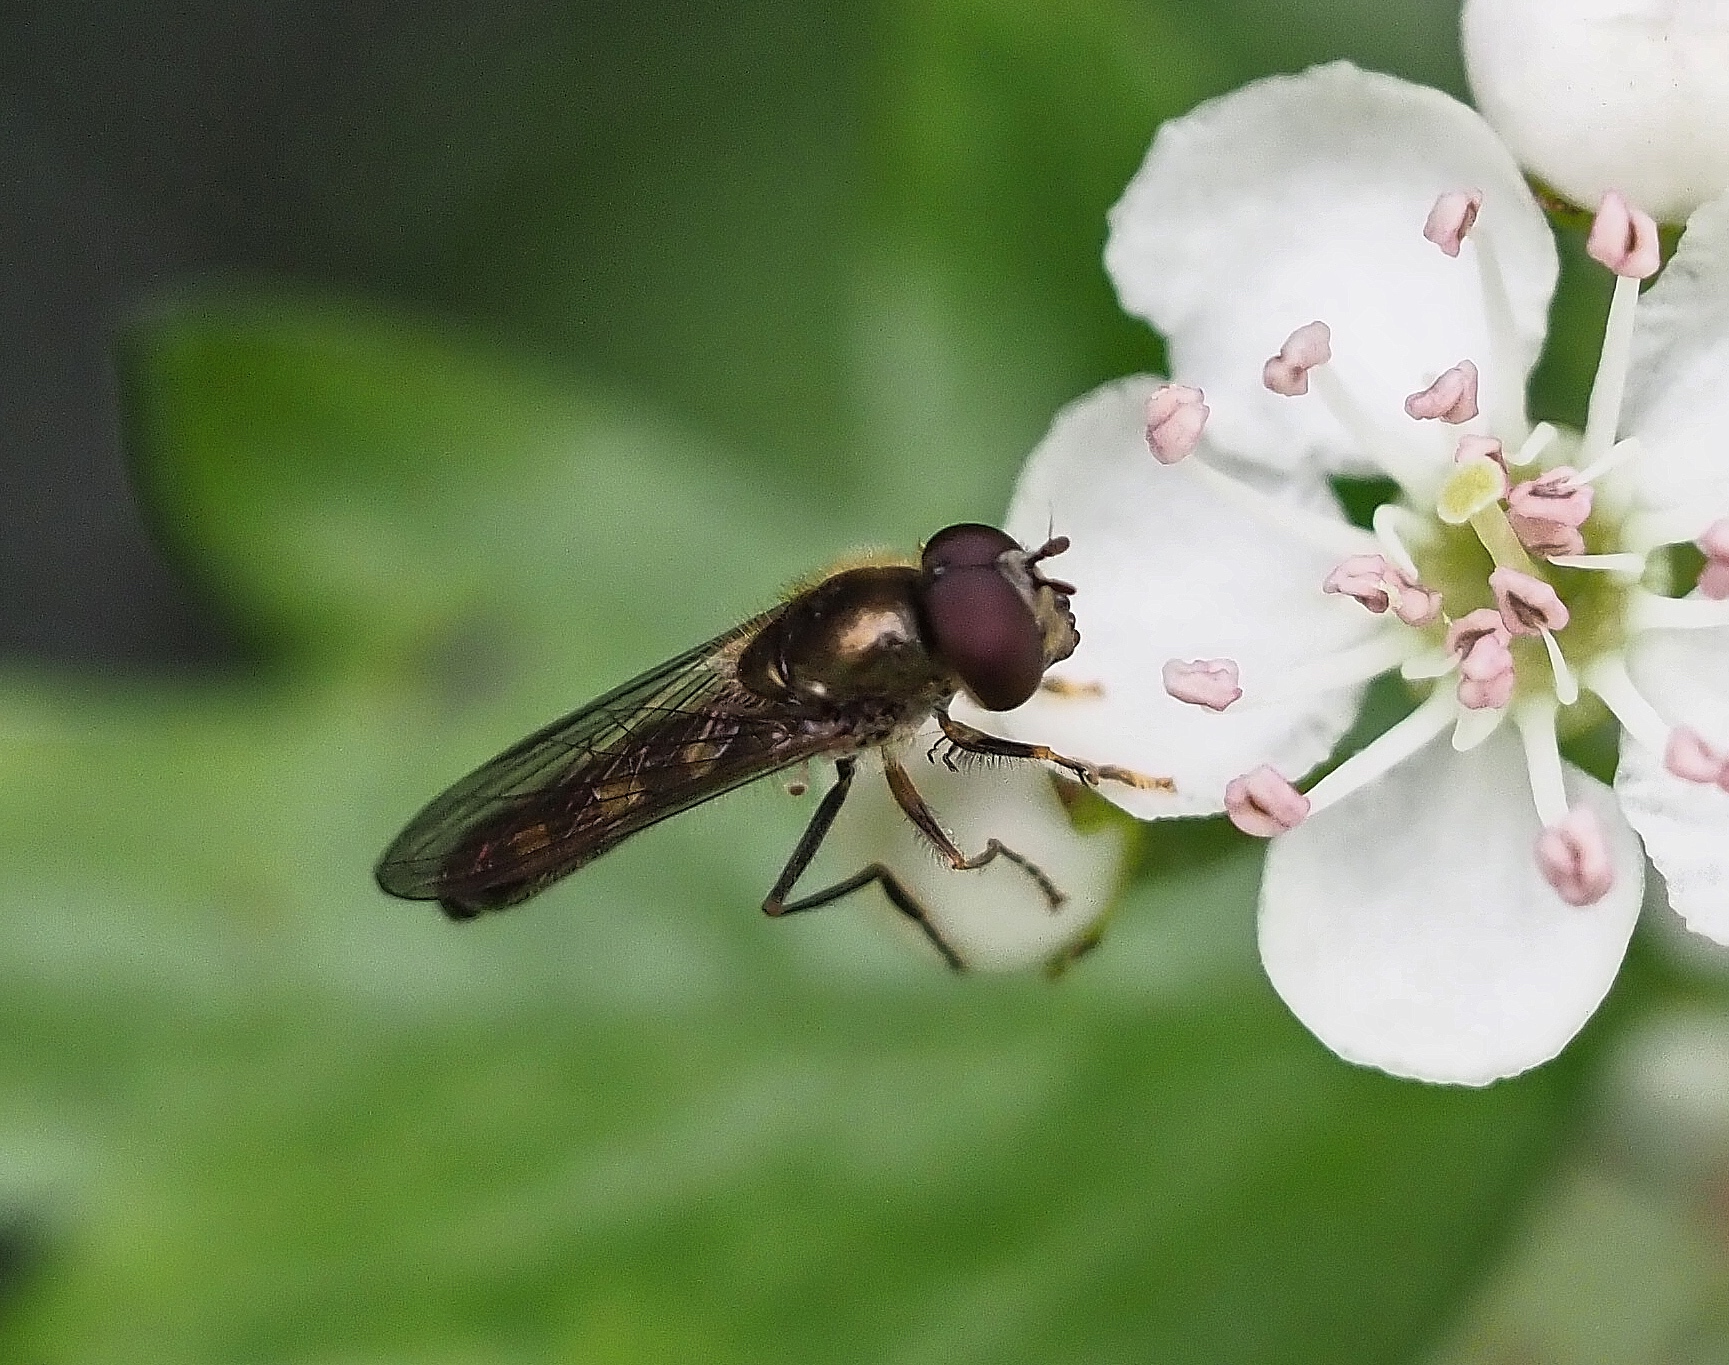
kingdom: Animalia
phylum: Arthropoda
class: Insecta
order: Diptera
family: Syrphidae
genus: Platycheirus
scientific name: Platycheirus scutatus
